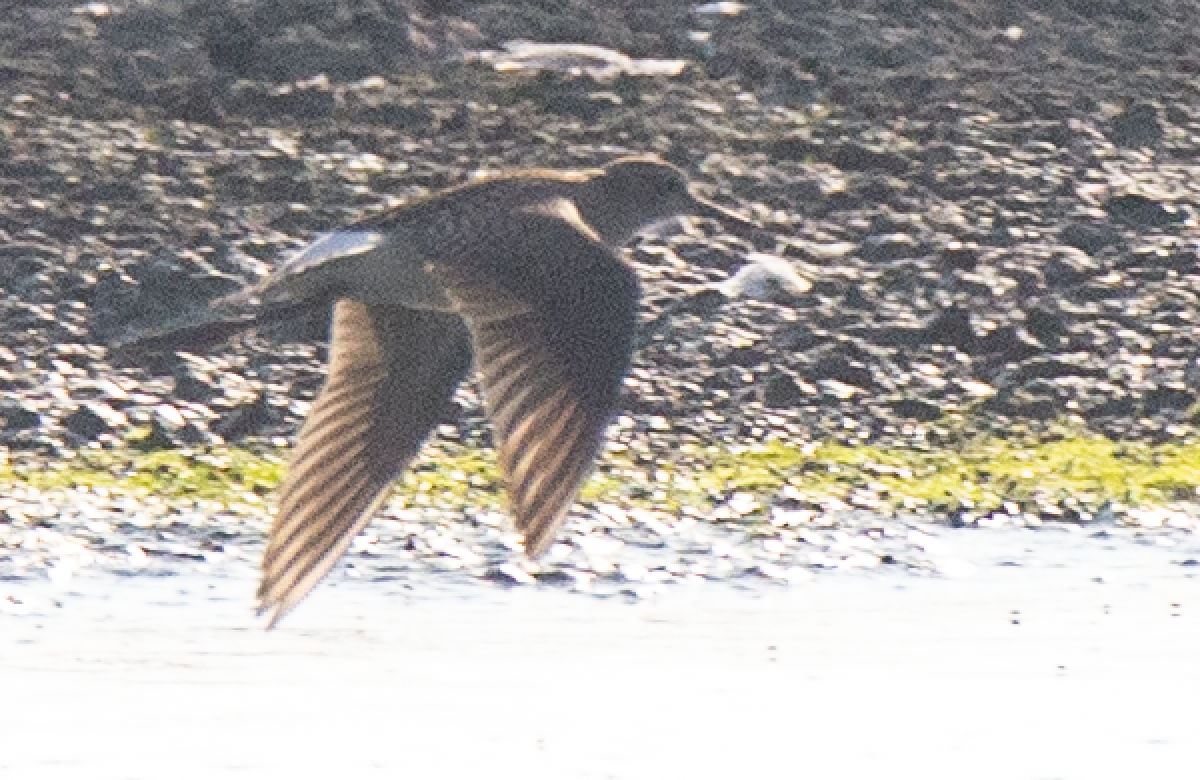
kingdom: Animalia
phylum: Chordata
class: Aves
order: Charadriiformes
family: Scolopacidae
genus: Tringa
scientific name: Tringa glareola
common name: Wood sandpiper
